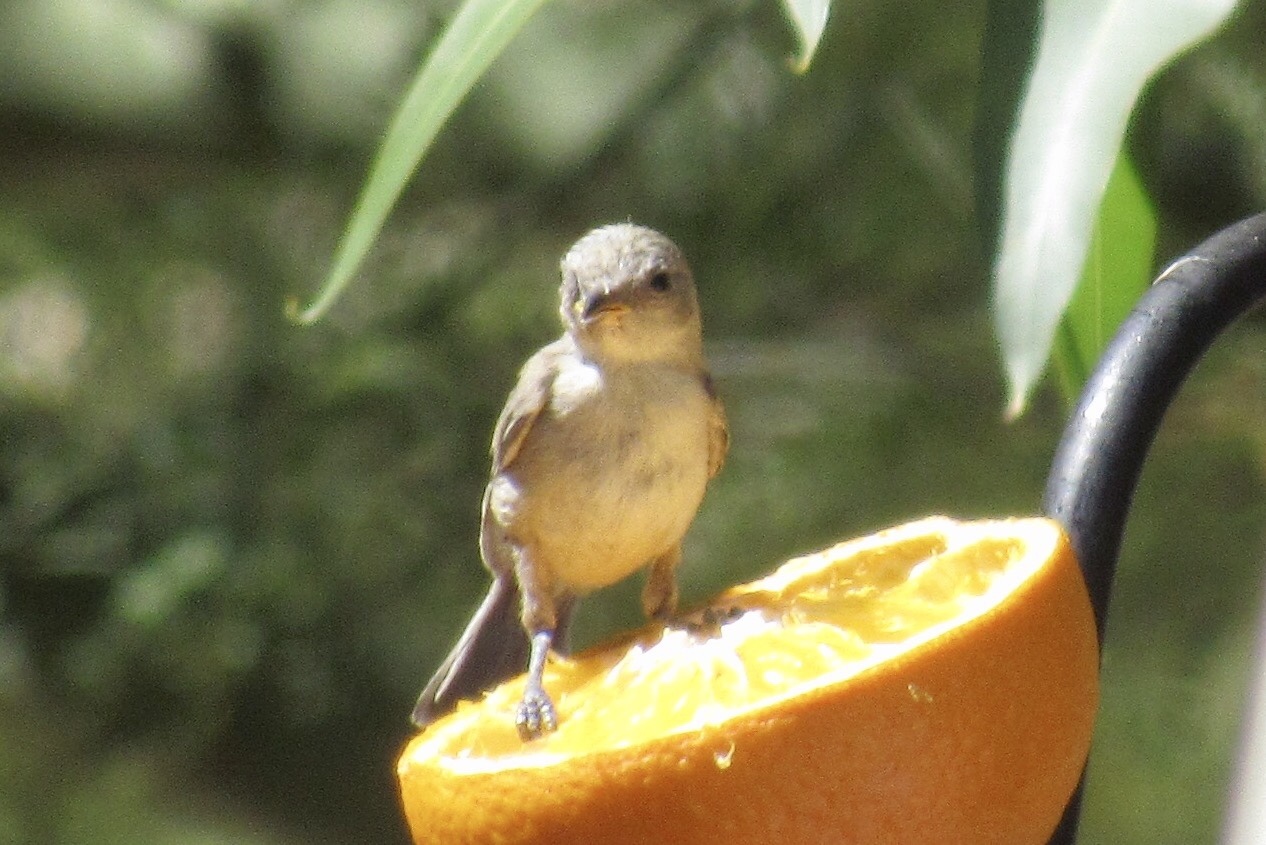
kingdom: Animalia
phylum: Chordata
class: Aves
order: Passeriformes
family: Remizidae
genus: Auriparus
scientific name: Auriparus flaviceps
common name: Verdin
